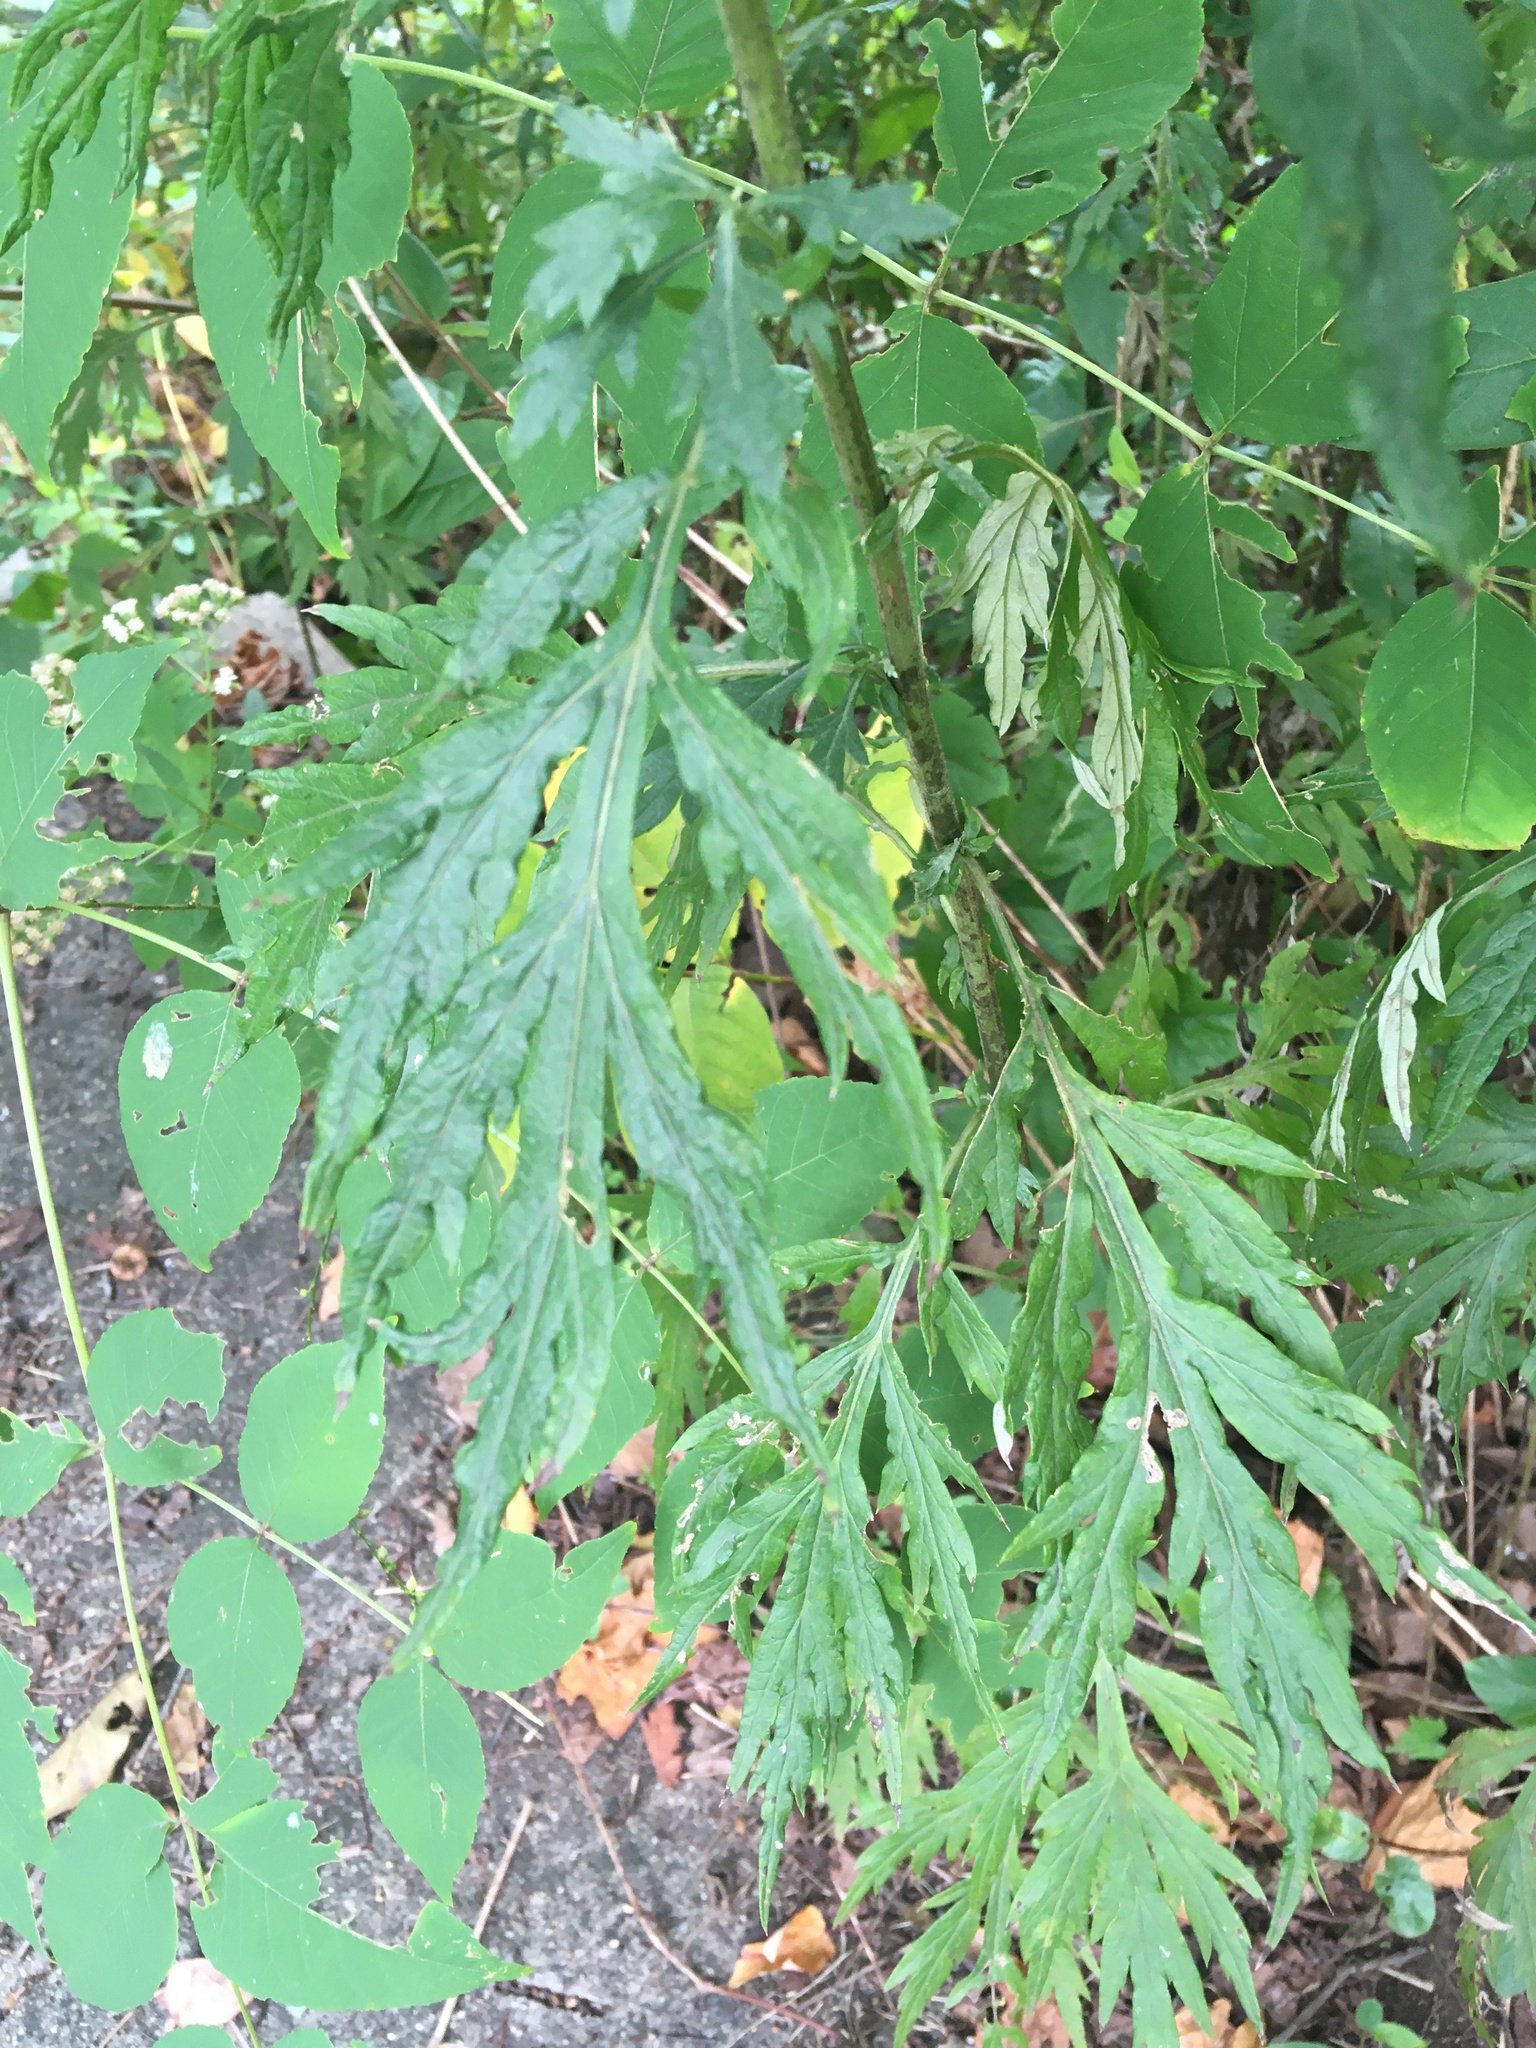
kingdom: Plantae
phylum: Tracheophyta
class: Magnoliopsida
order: Asterales
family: Asteraceae
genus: Artemisia
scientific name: Artemisia vulgaris
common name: Mugwort
